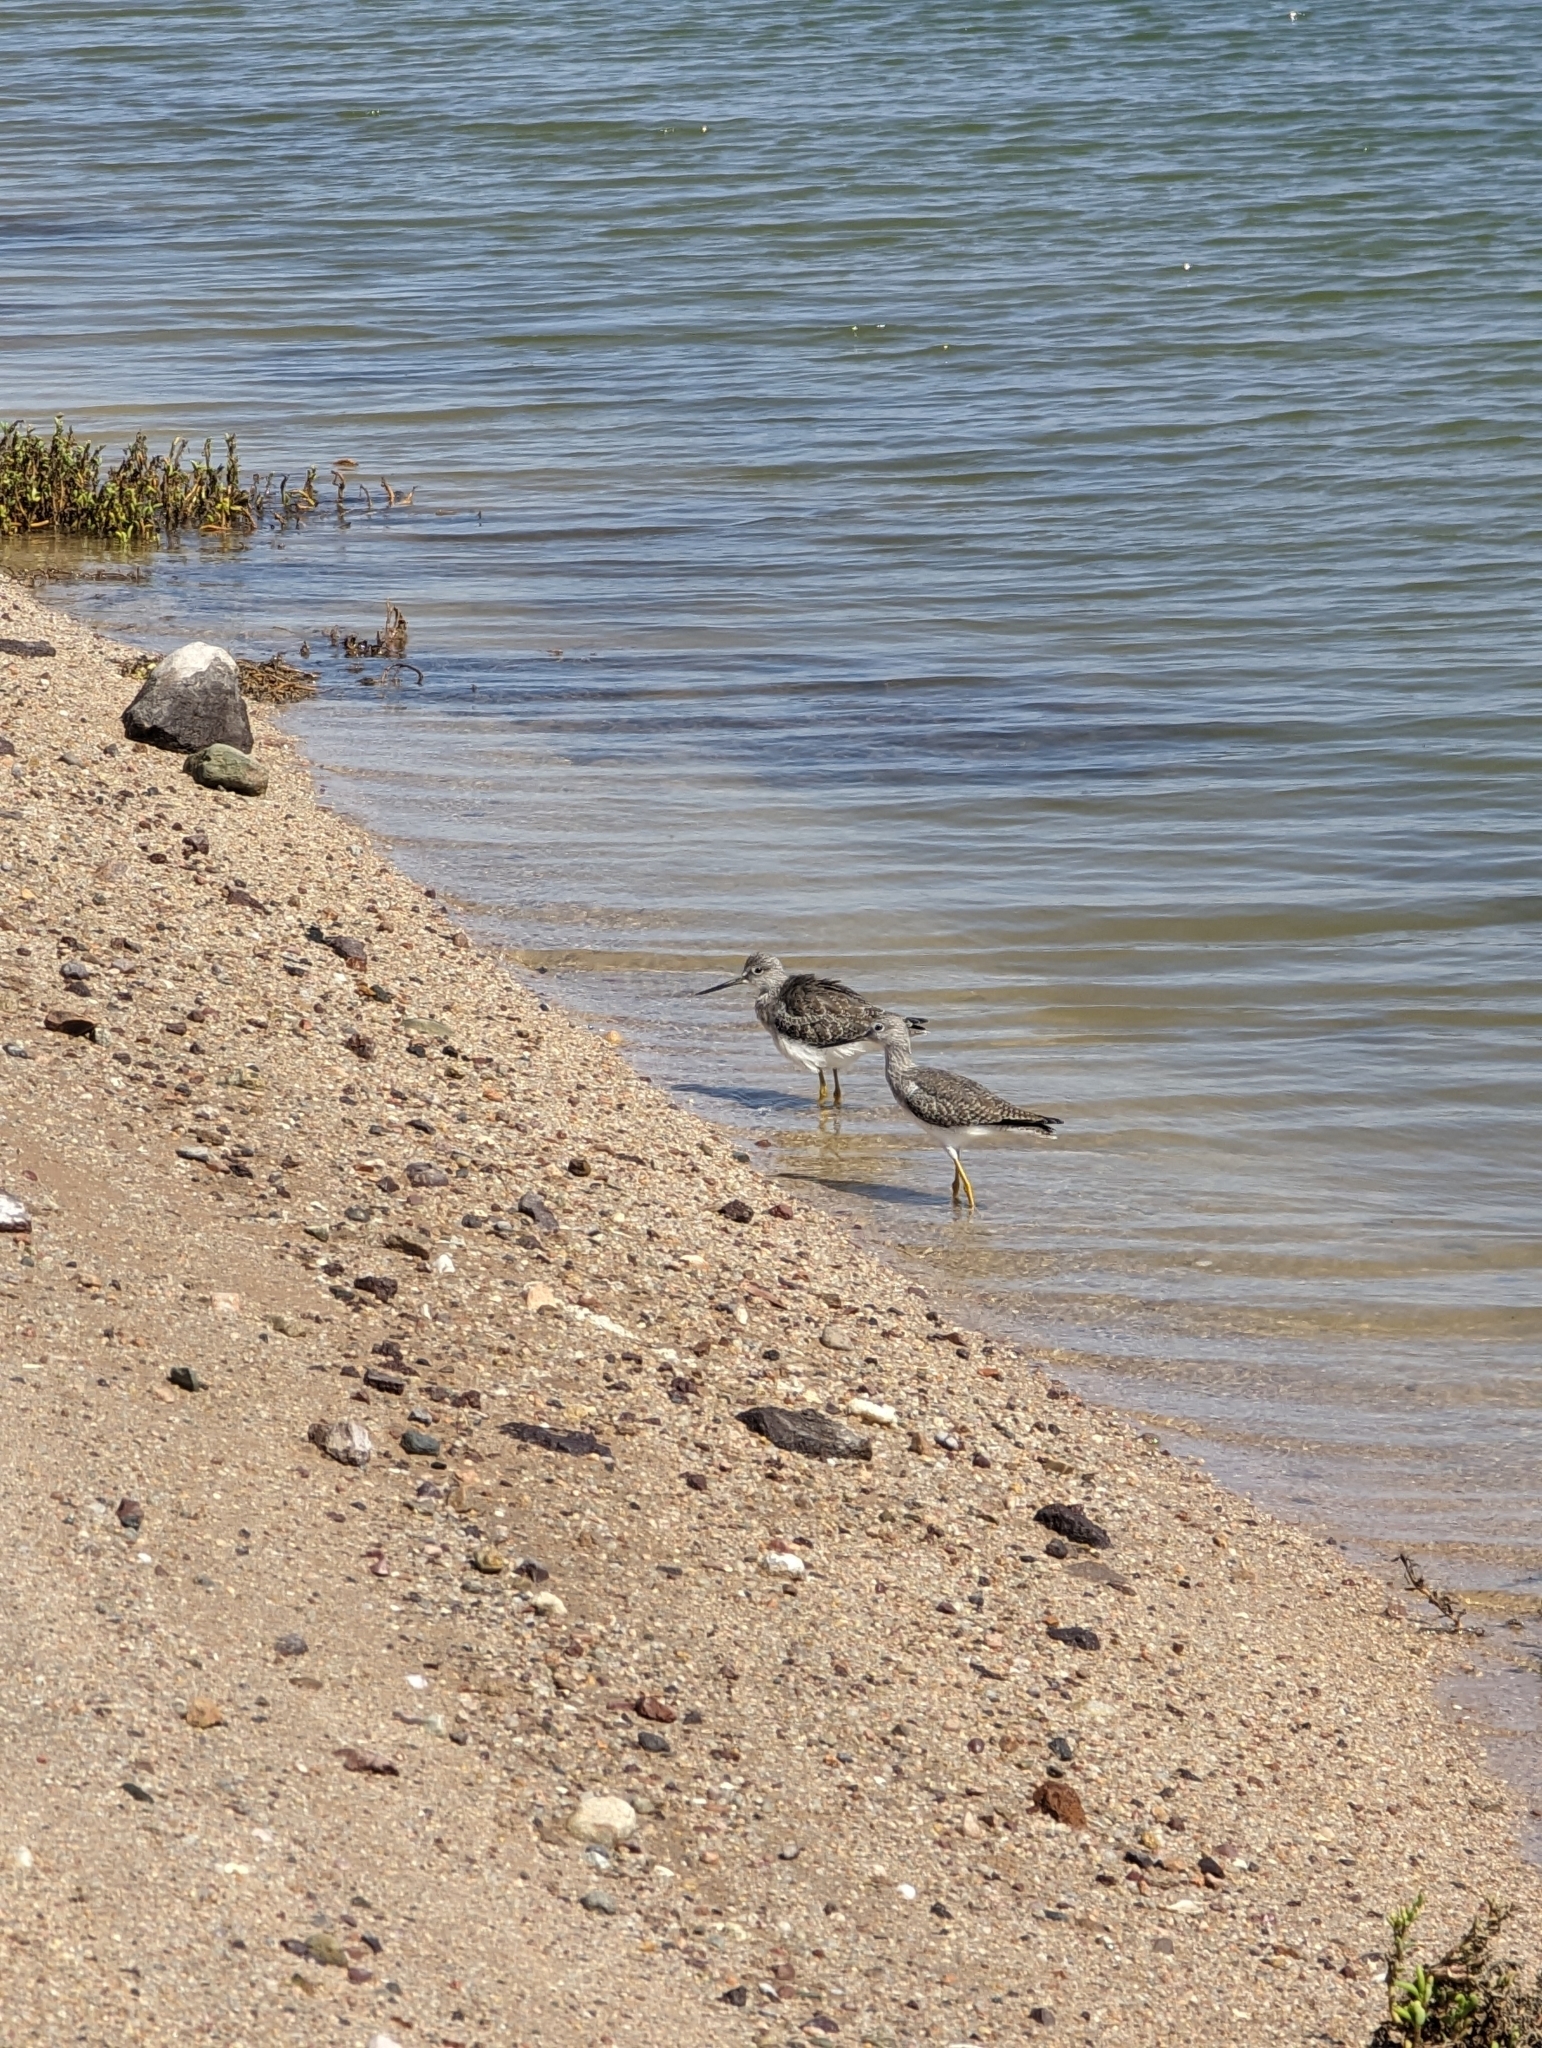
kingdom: Animalia
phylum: Chordata
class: Aves
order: Charadriiformes
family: Scolopacidae
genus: Tringa
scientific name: Tringa melanoleuca
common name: Greater yellowlegs
